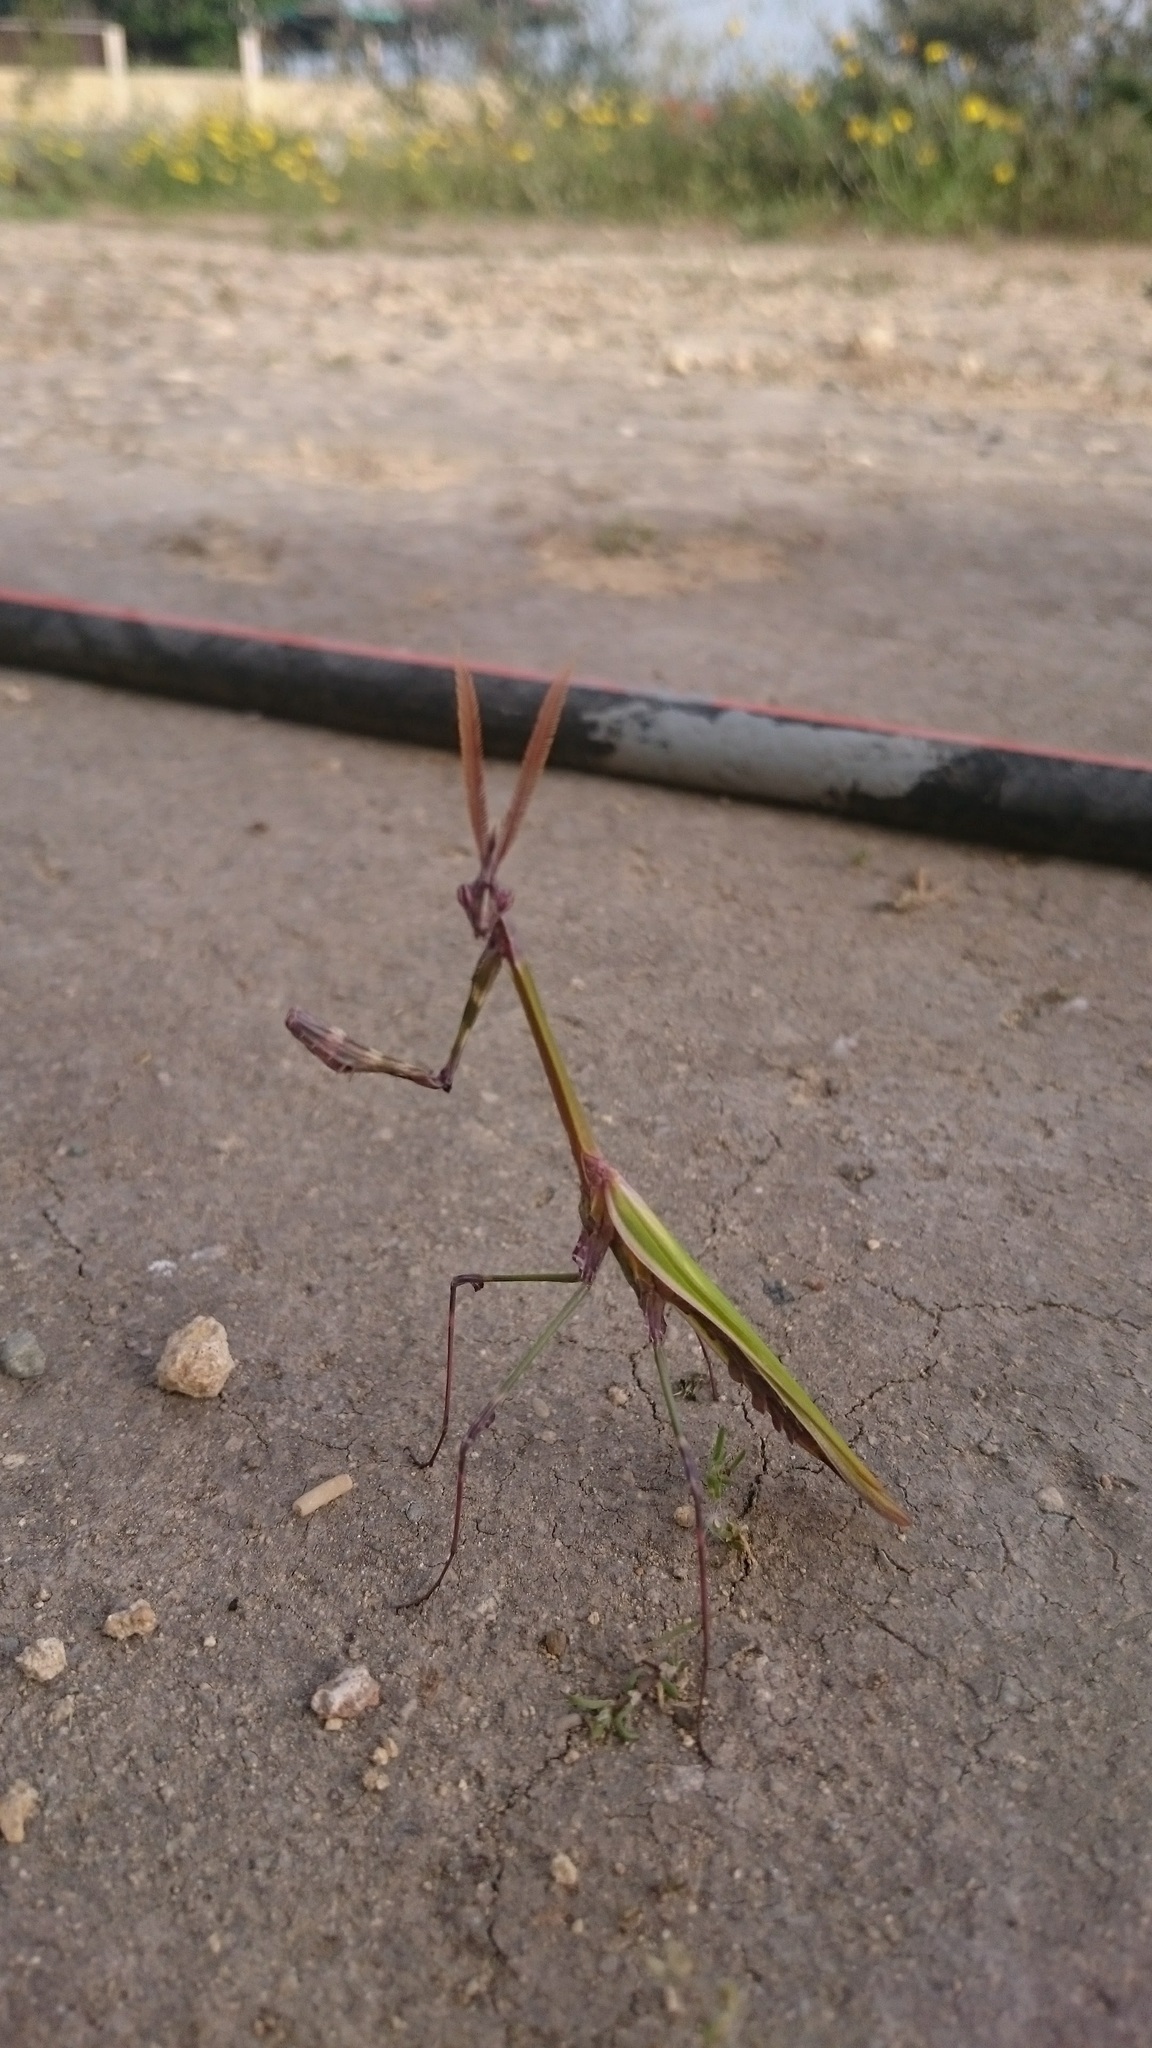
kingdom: Animalia
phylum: Arthropoda
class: Insecta
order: Mantodea
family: Empusidae
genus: Empusa
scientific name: Empusa fasciata
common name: Devil's mare
